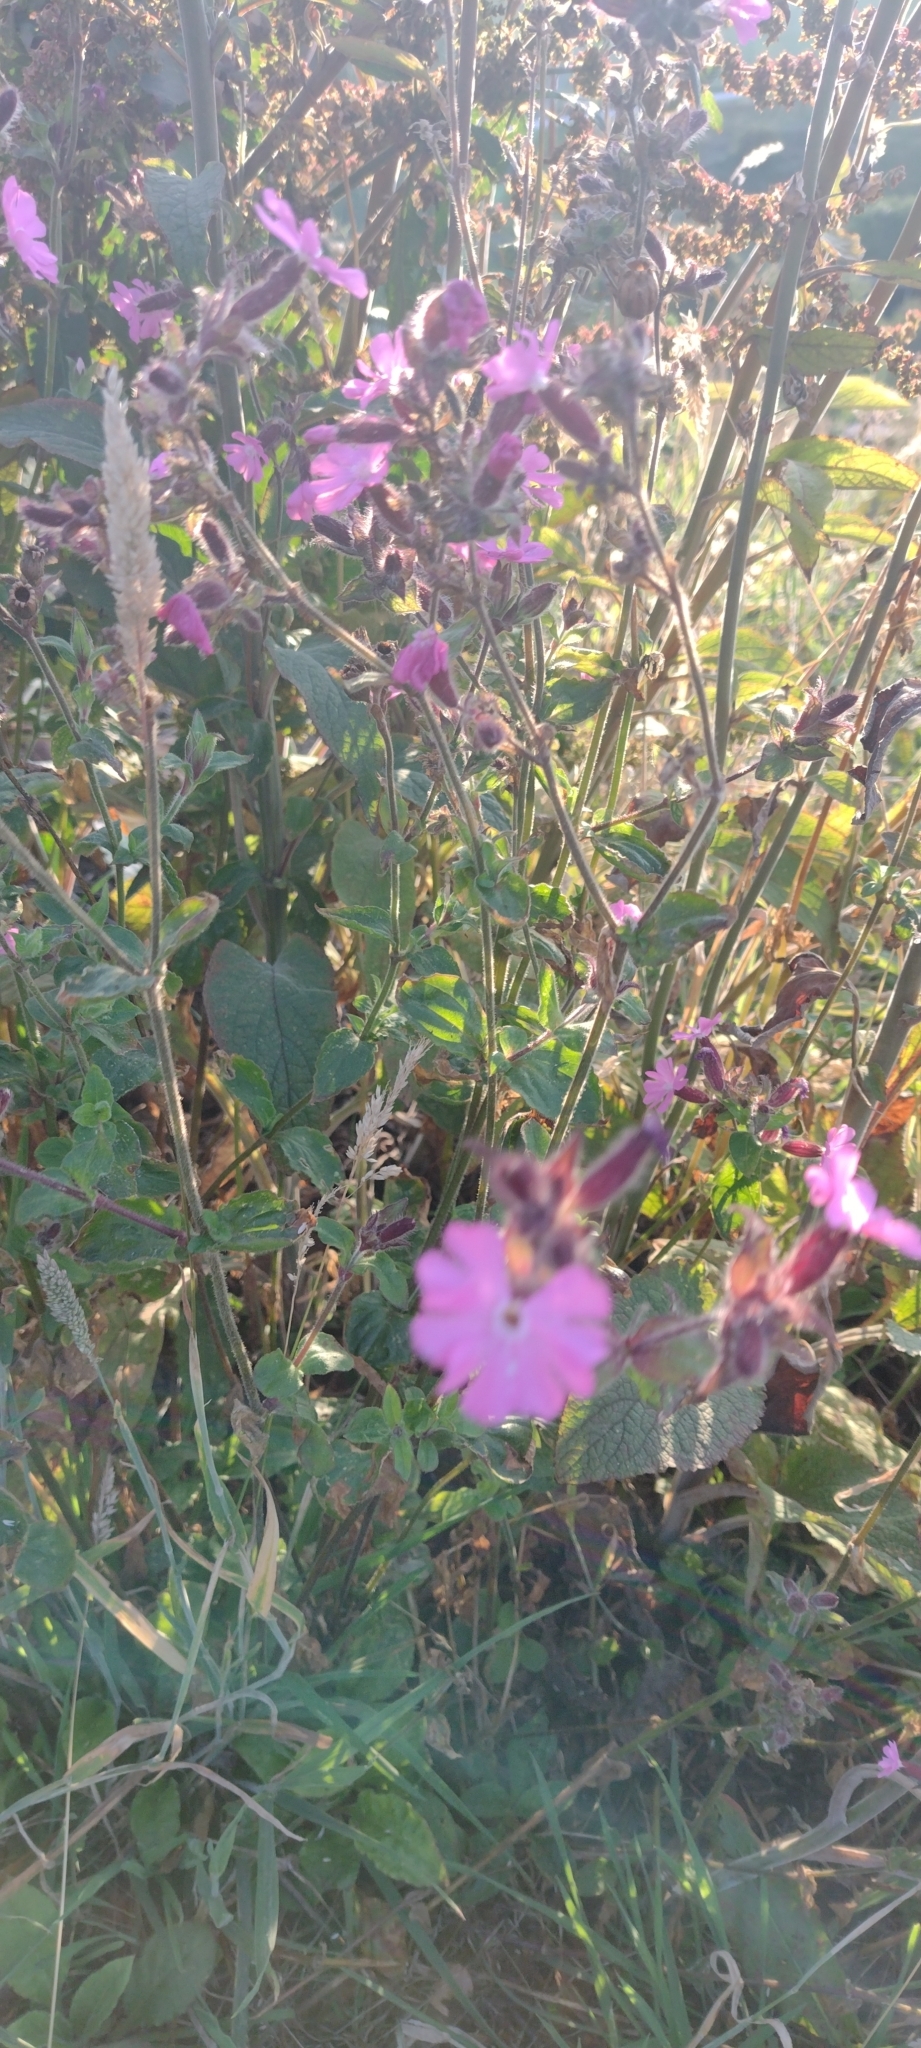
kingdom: Plantae
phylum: Tracheophyta
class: Magnoliopsida
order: Caryophyllales
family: Caryophyllaceae
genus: Silene
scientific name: Silene dioica
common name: Red campion
